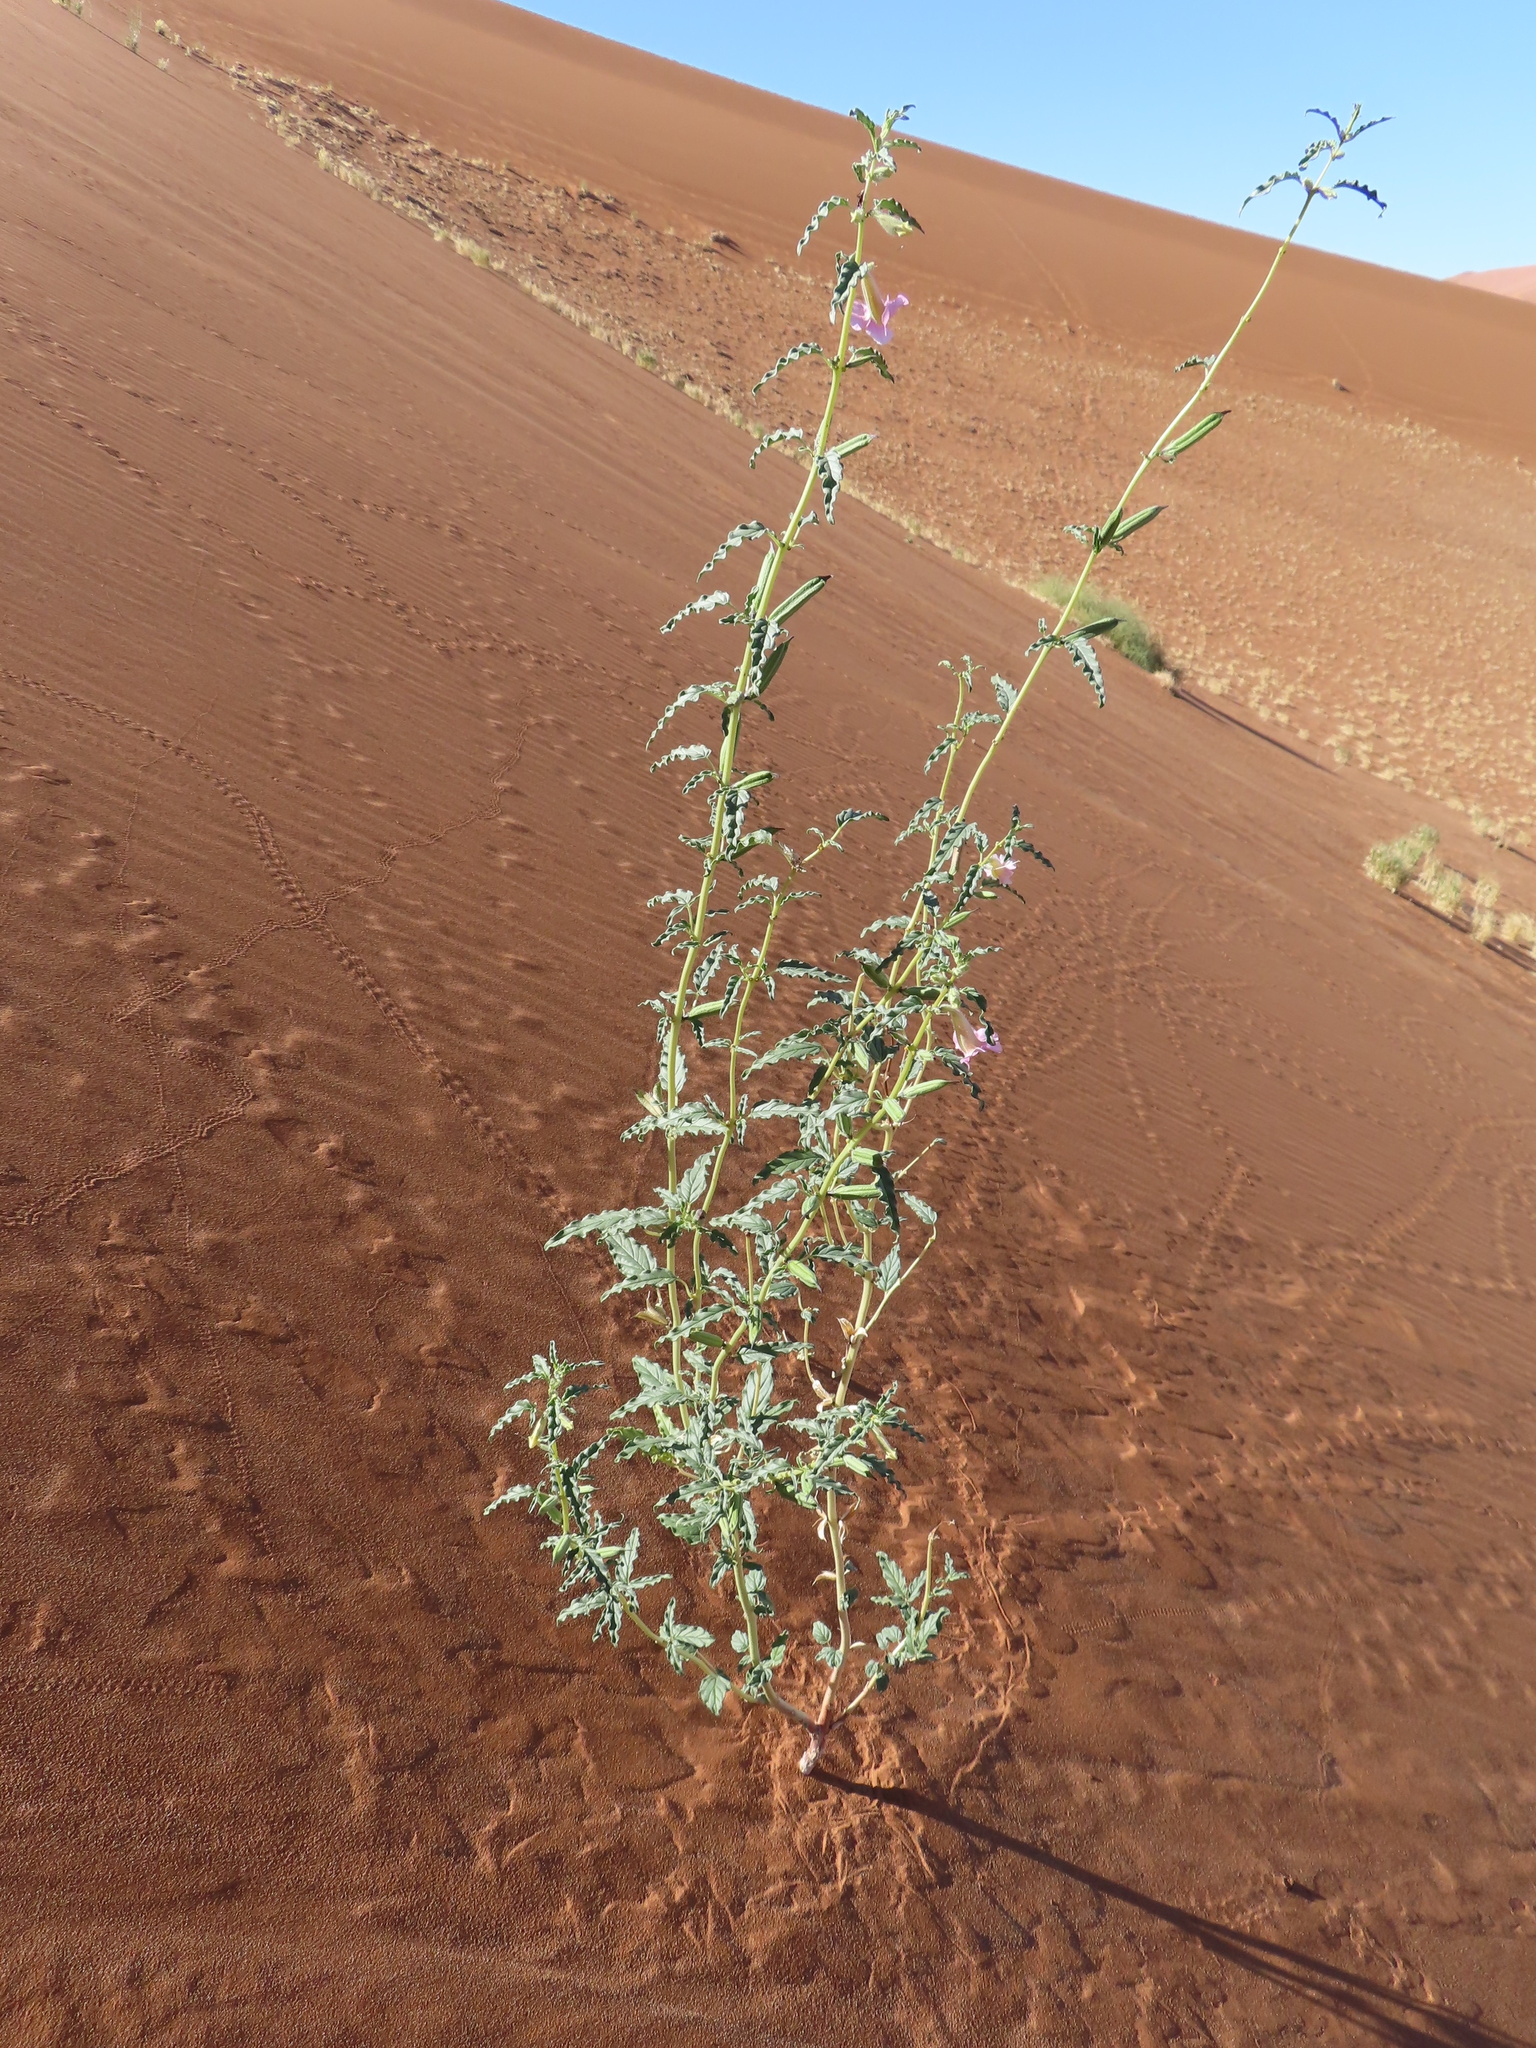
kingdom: Plantae
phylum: Tracheophyta
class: Magnoliopsida
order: Lamiales
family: Pedaliaceae
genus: Sesamum
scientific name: Sesamum abbreviatum
